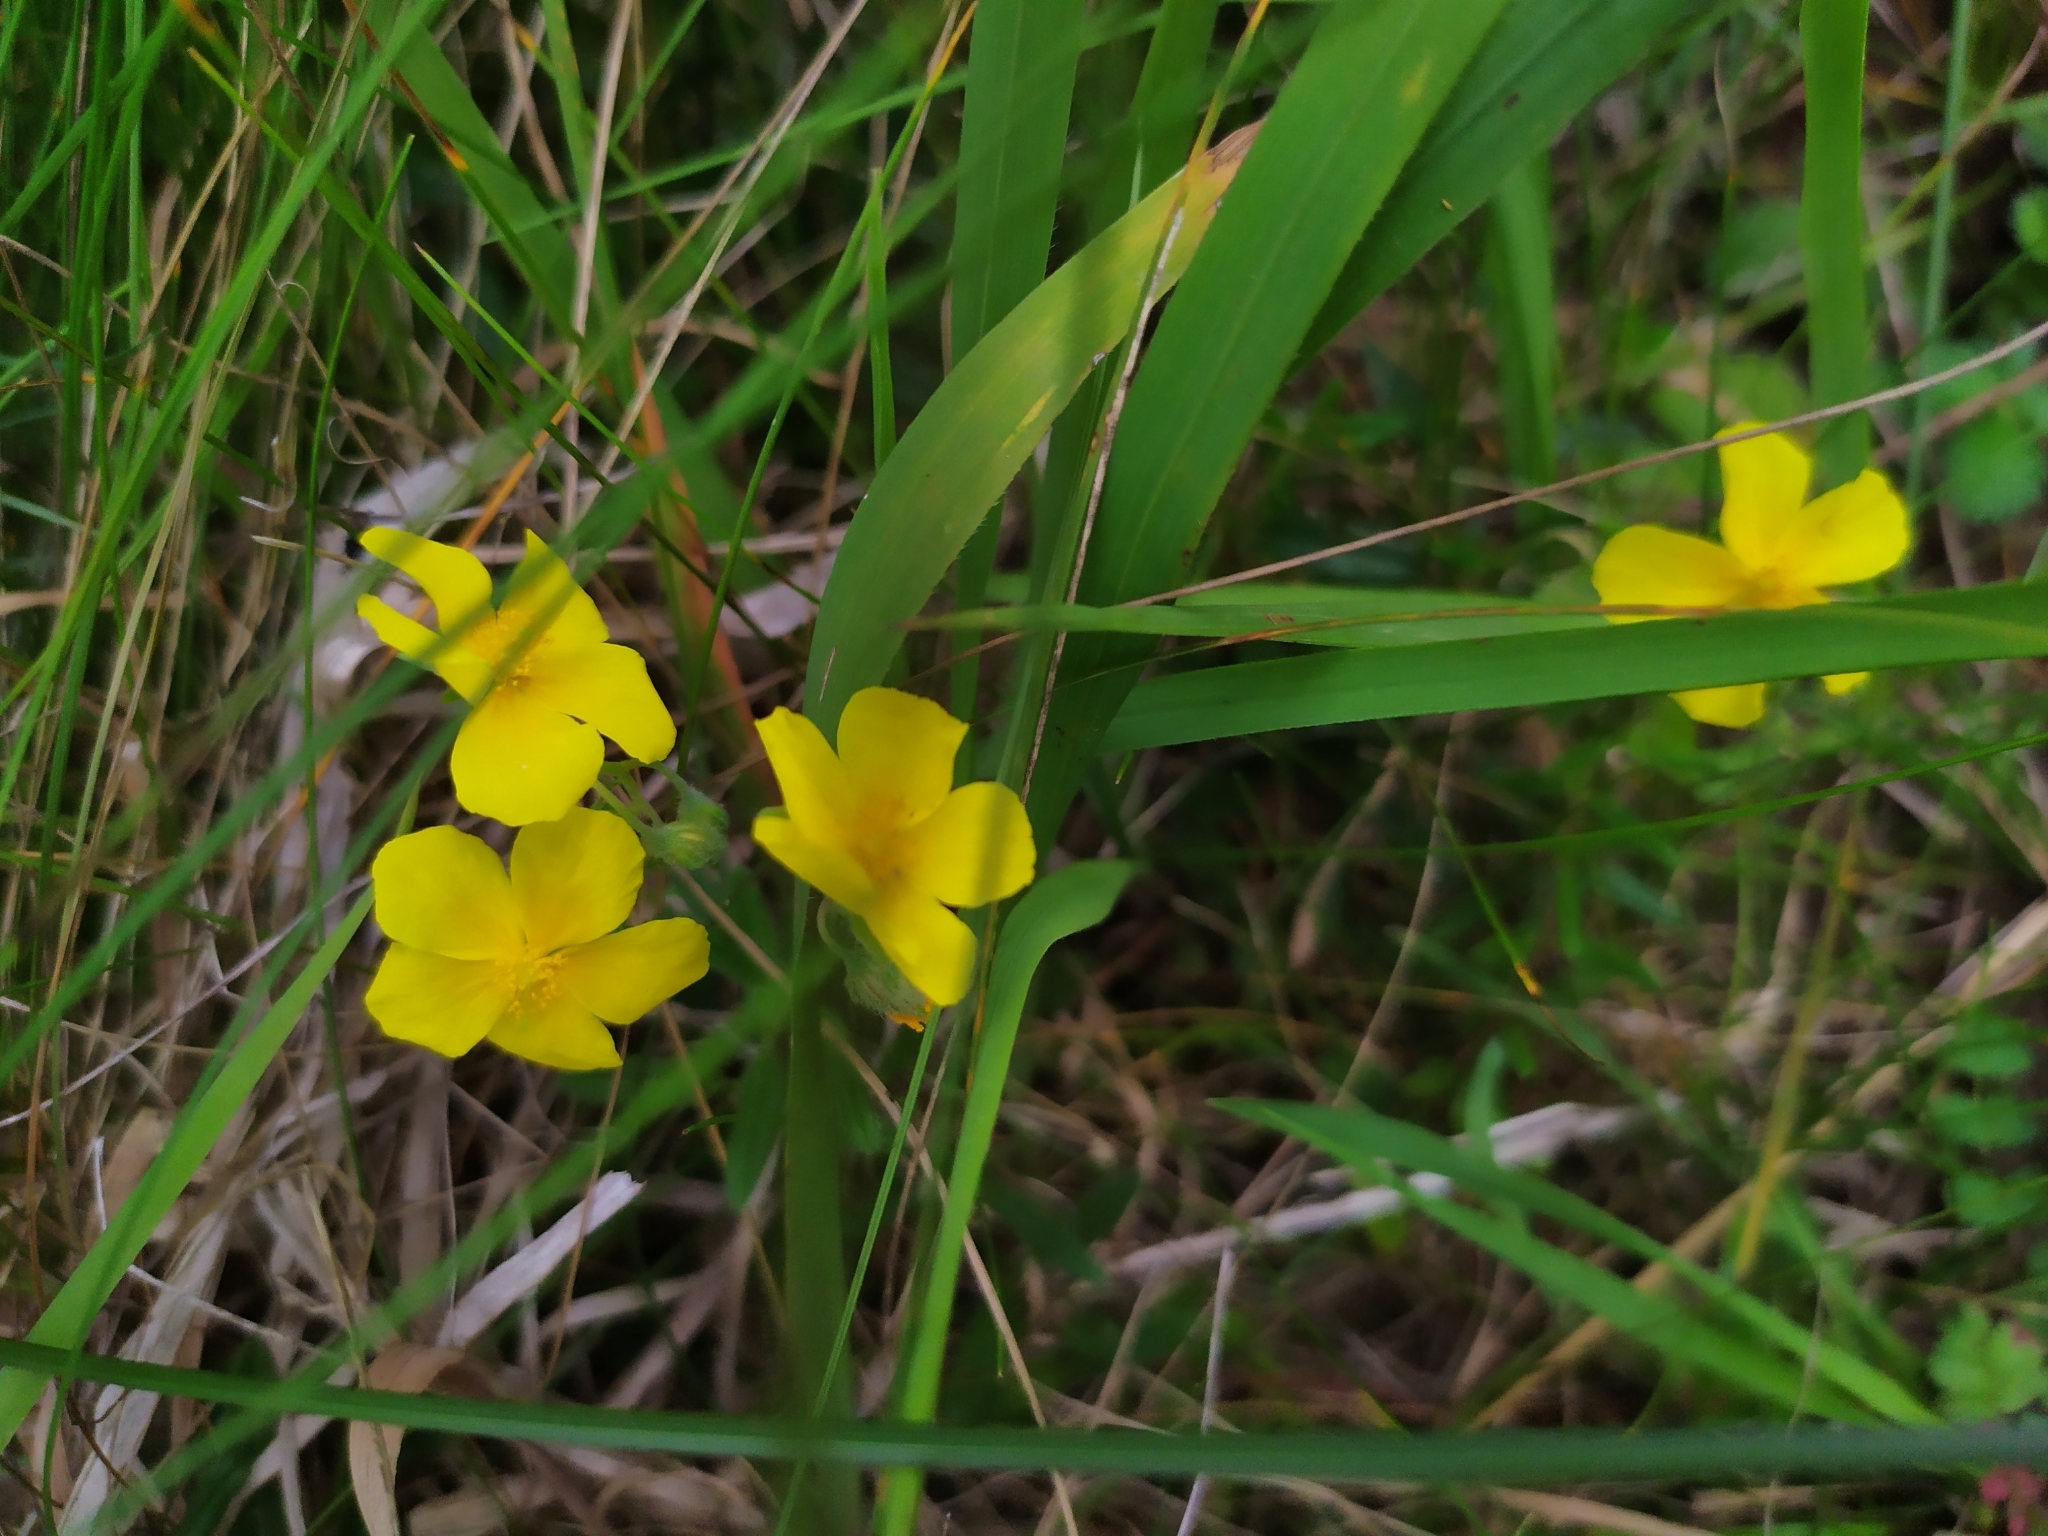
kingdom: Plantae
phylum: Tracheophyta
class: Magnoliopsida
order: Malvales
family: Cistaceae
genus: Helianthemum
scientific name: Helianthemum nummularium
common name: Common rock-rose
